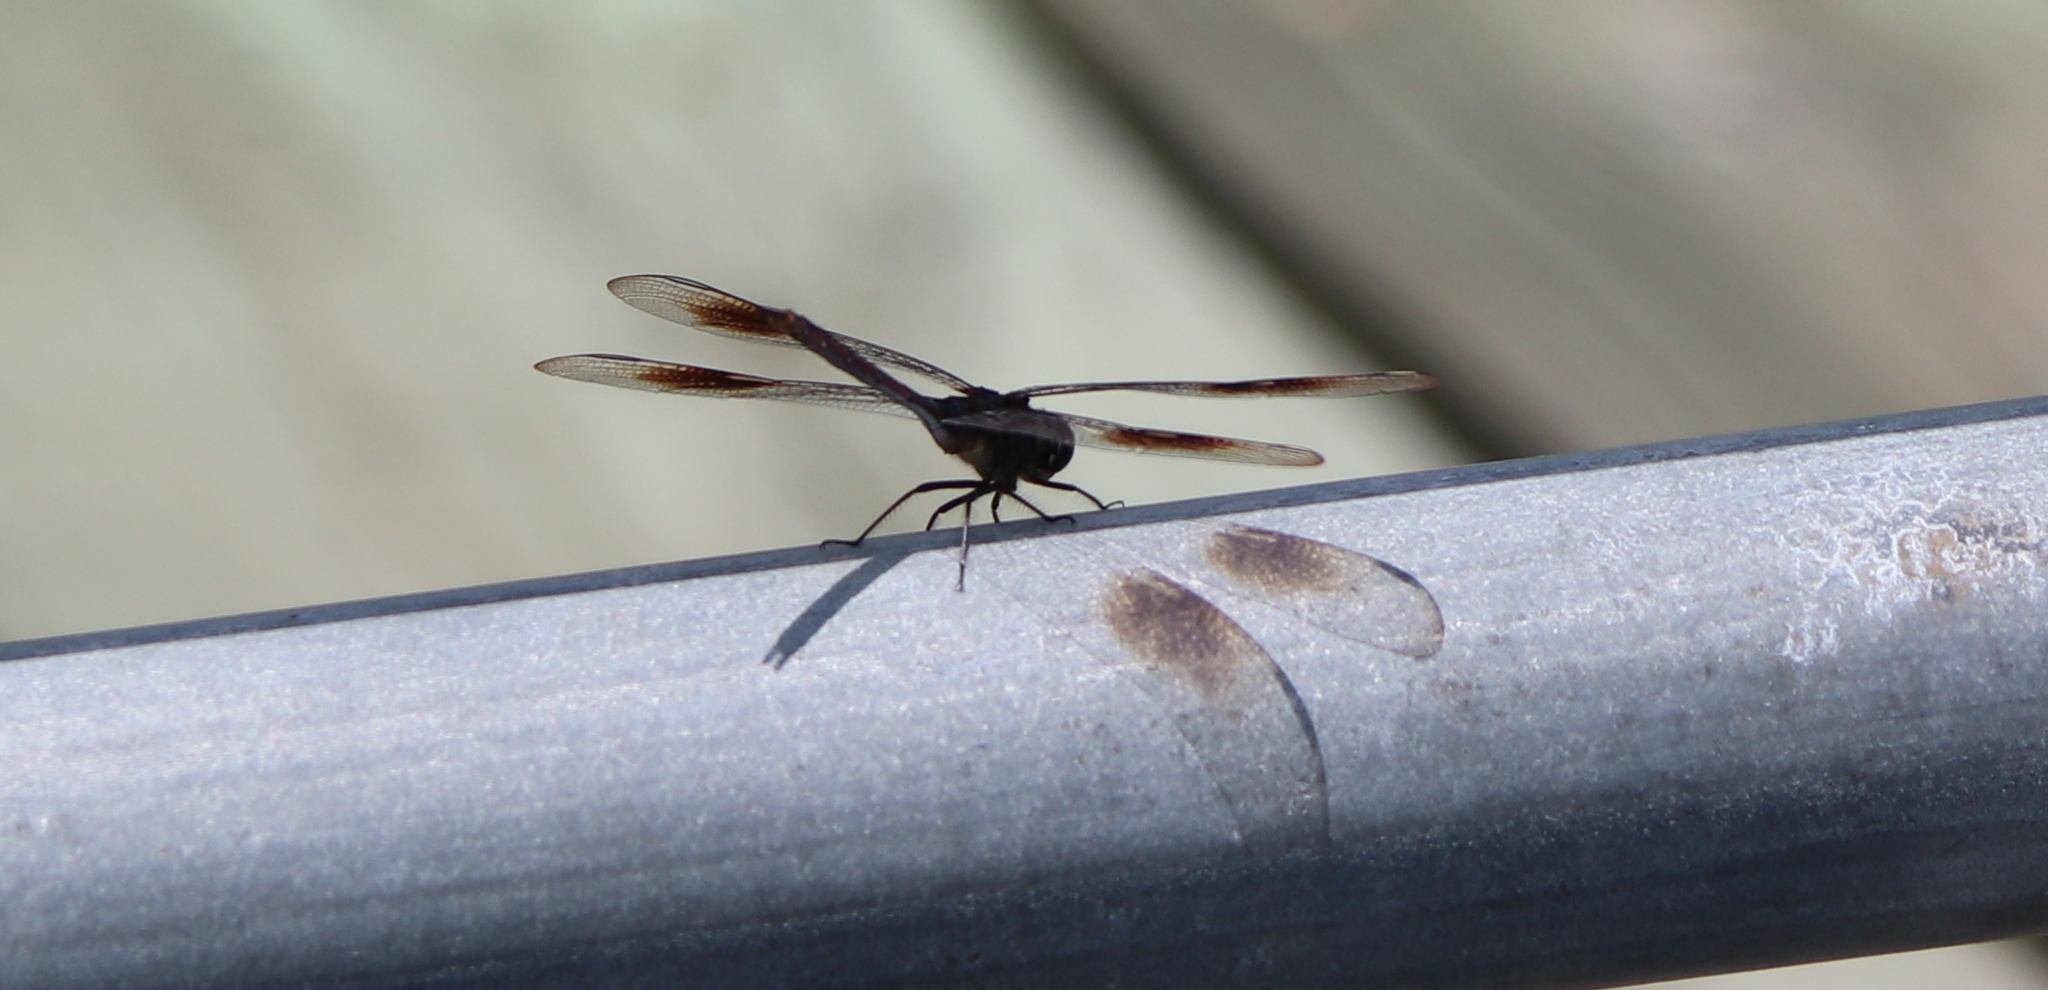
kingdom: Animalia
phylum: Arthropoda
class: Insecta
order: Odonata
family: Libellulidae
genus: Brachymesia
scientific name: Brachymesia gravida
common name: Four-spotted pennant
